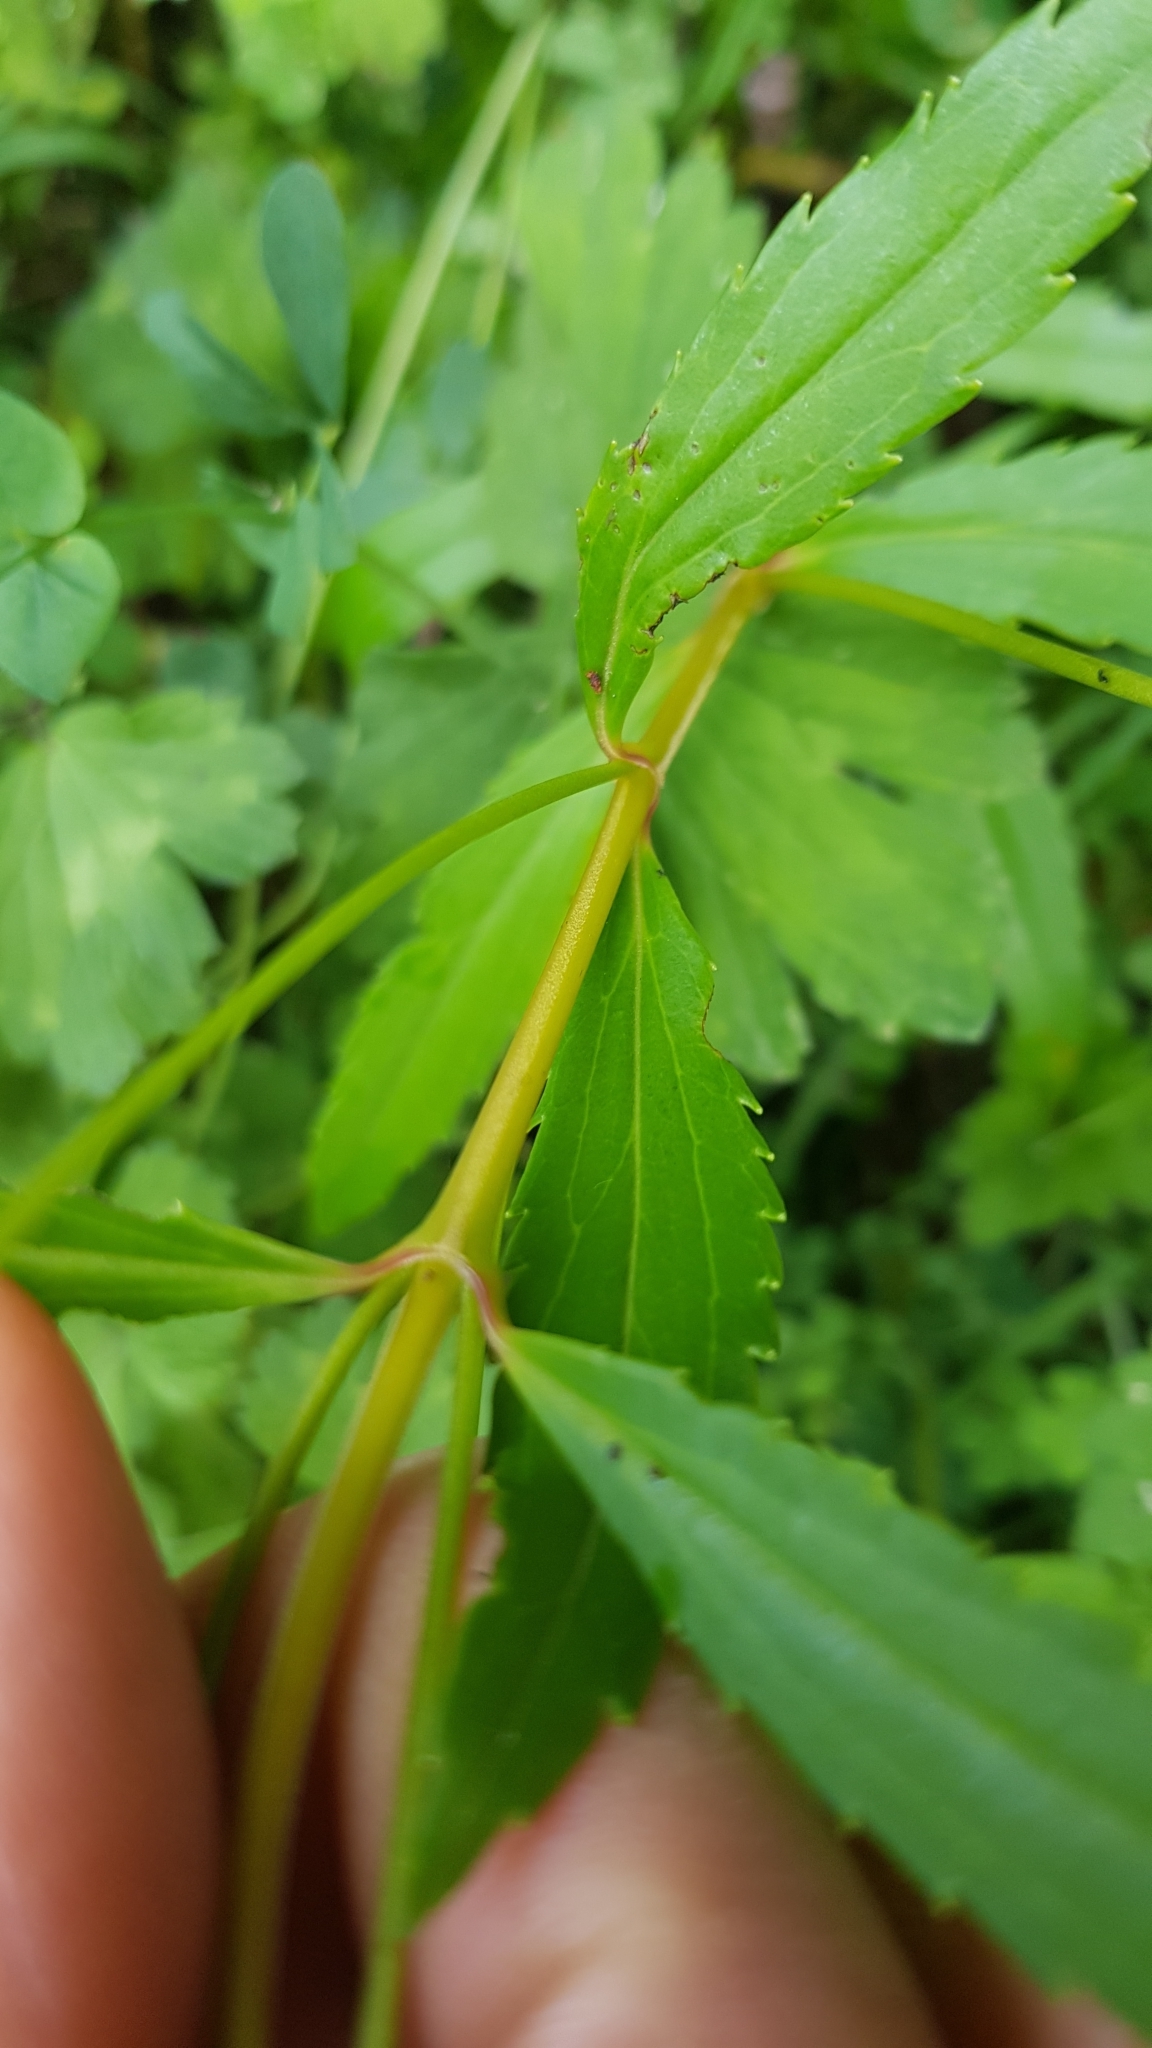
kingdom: Plantae
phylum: Tracheophyta
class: Magnoliopsida
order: Lamiales
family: Plantaginaceae
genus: Veronica
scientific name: Veronica lanceolata
